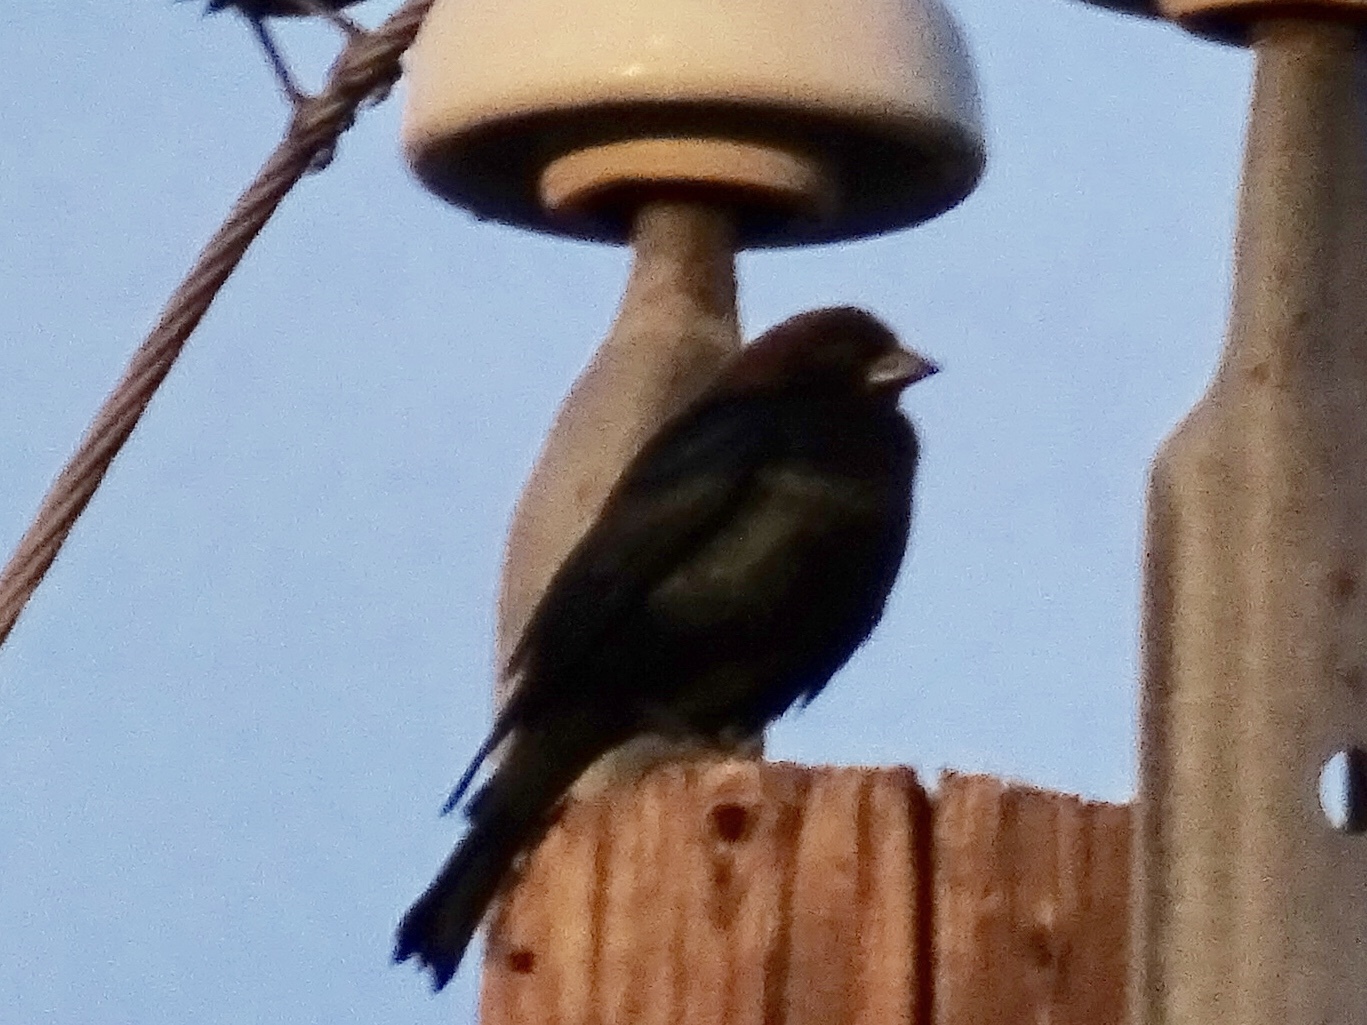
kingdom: Animalia
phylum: Chordata
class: Aves
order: Passeriformes
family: Icteridae
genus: Molothrus
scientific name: Molothrus ater
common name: Brown-headed cowbird
